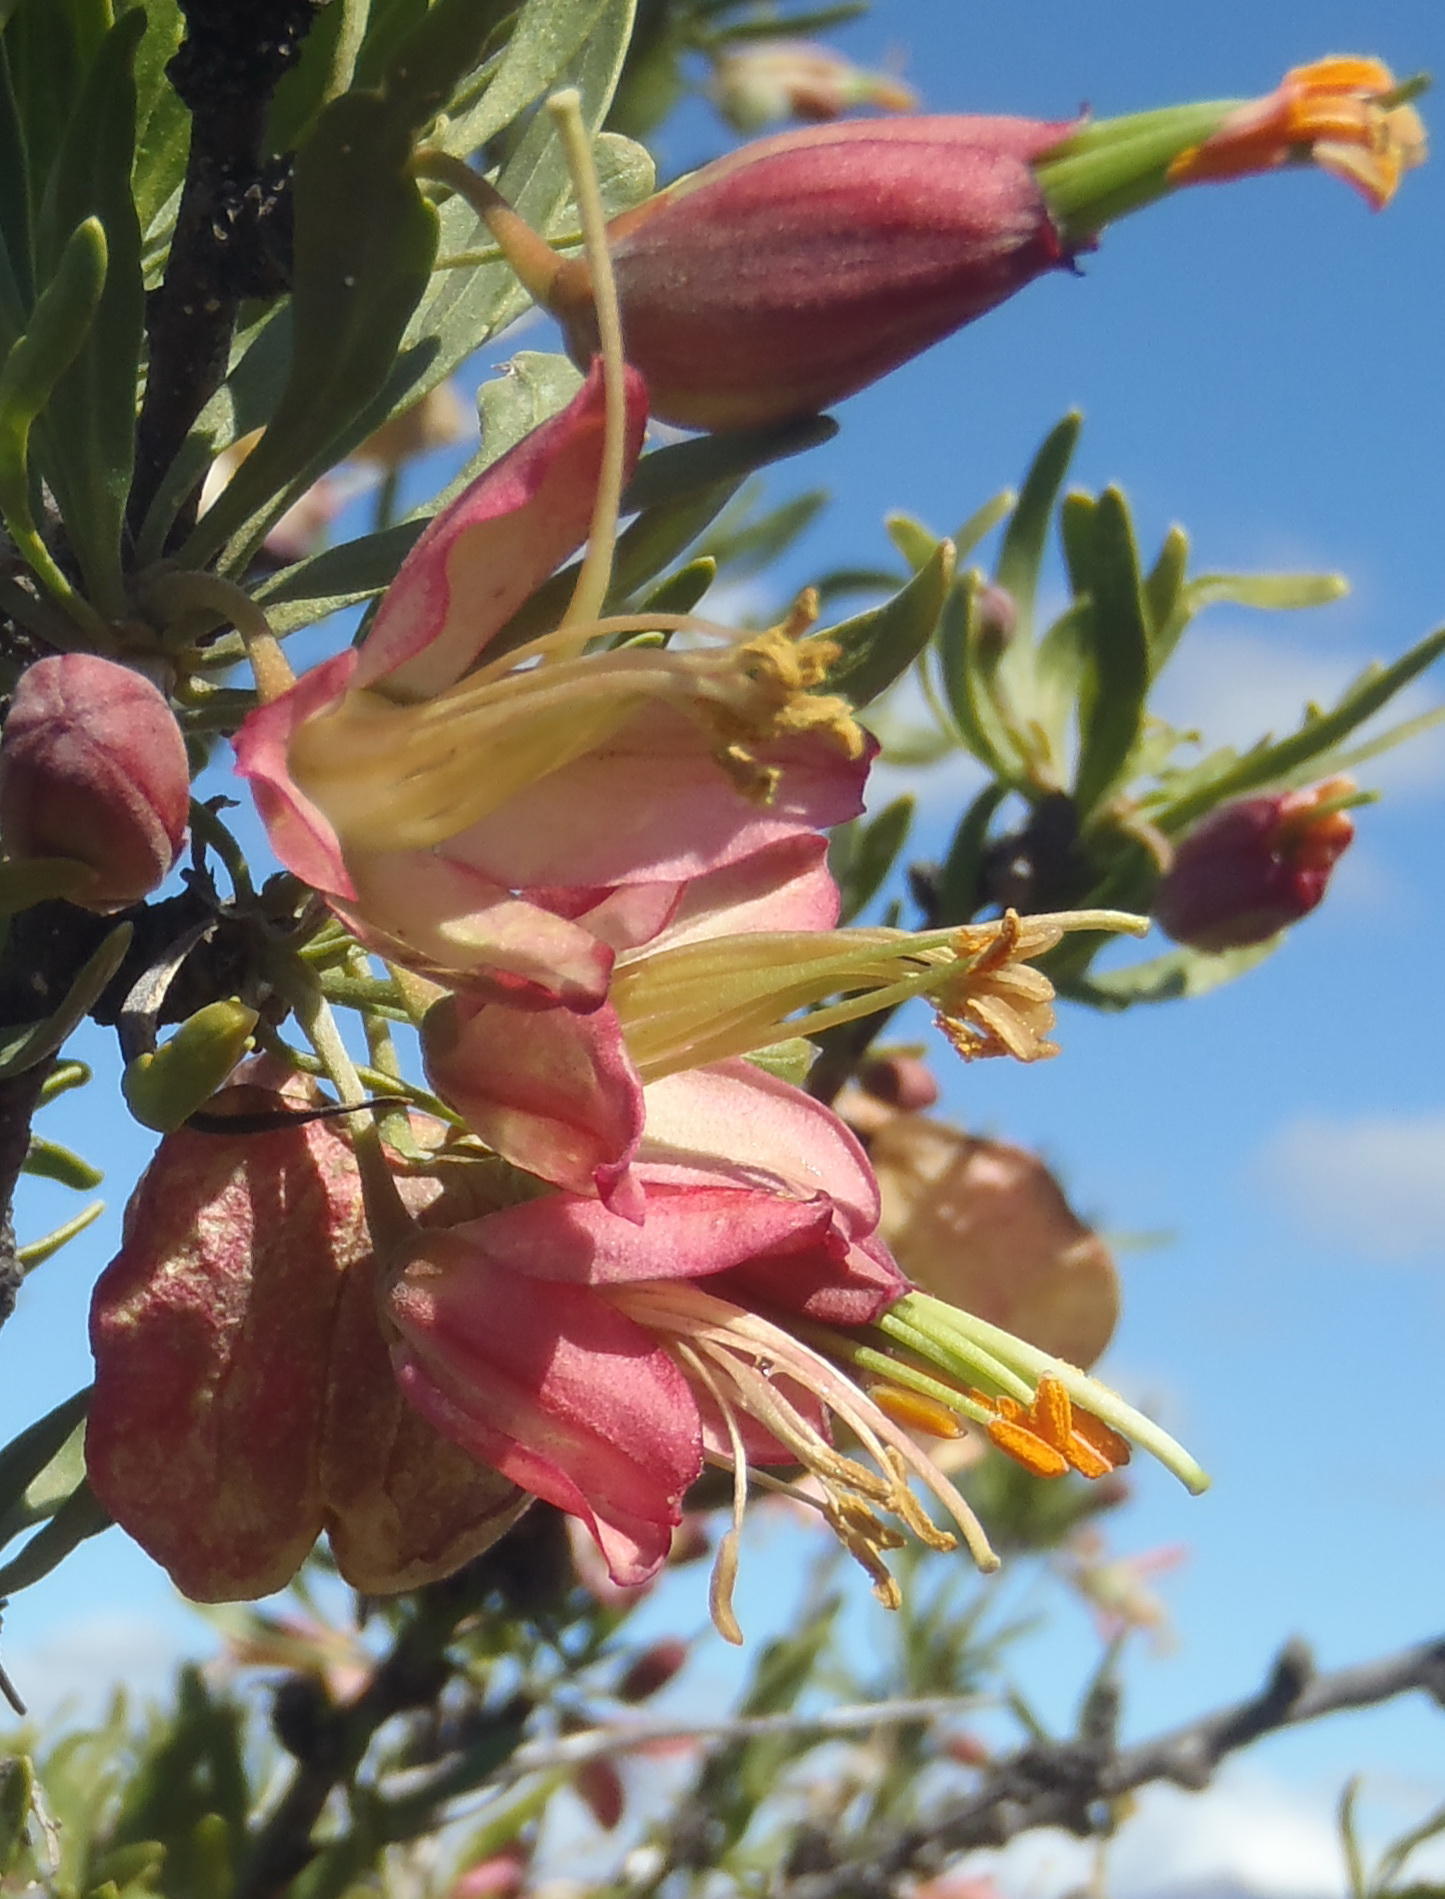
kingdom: Plantae
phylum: Tracheophyta
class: Magnoliopsida
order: Sapindales
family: Meliaceae
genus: Nymania
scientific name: Nymania capensis
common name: Chinese lantern tree
